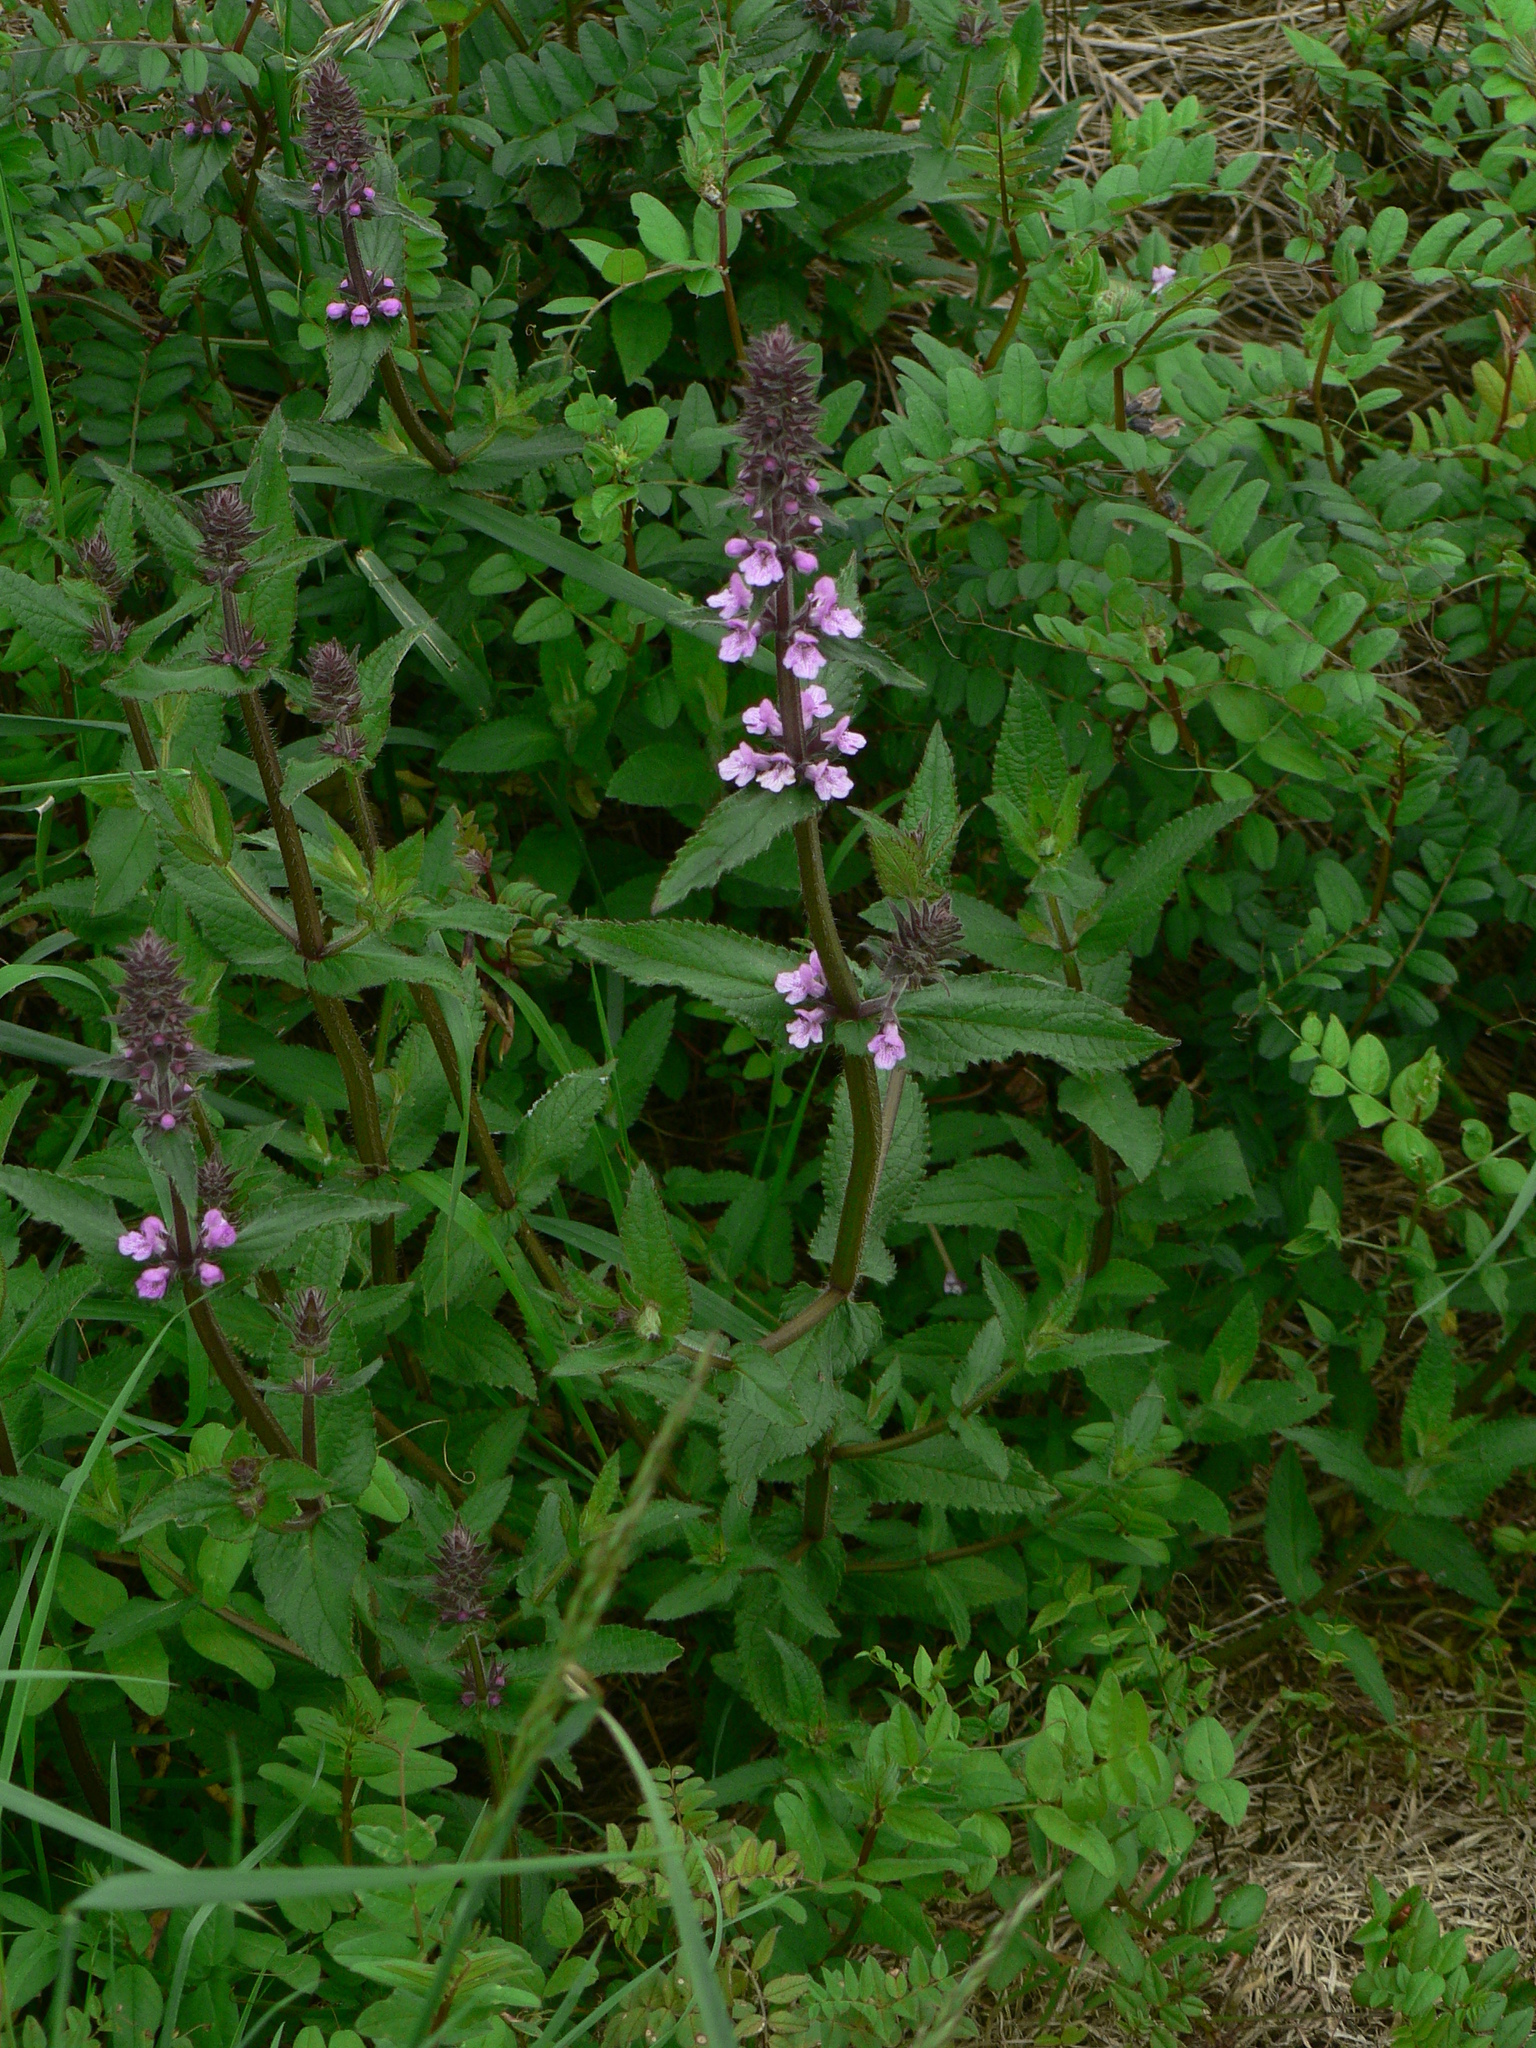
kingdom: Plantae
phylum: Tracheophyta
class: Magnoliopsida
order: Lamiales
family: Lamiaceae
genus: Stachys
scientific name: Stachys palustris
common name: Marsh woundwort
